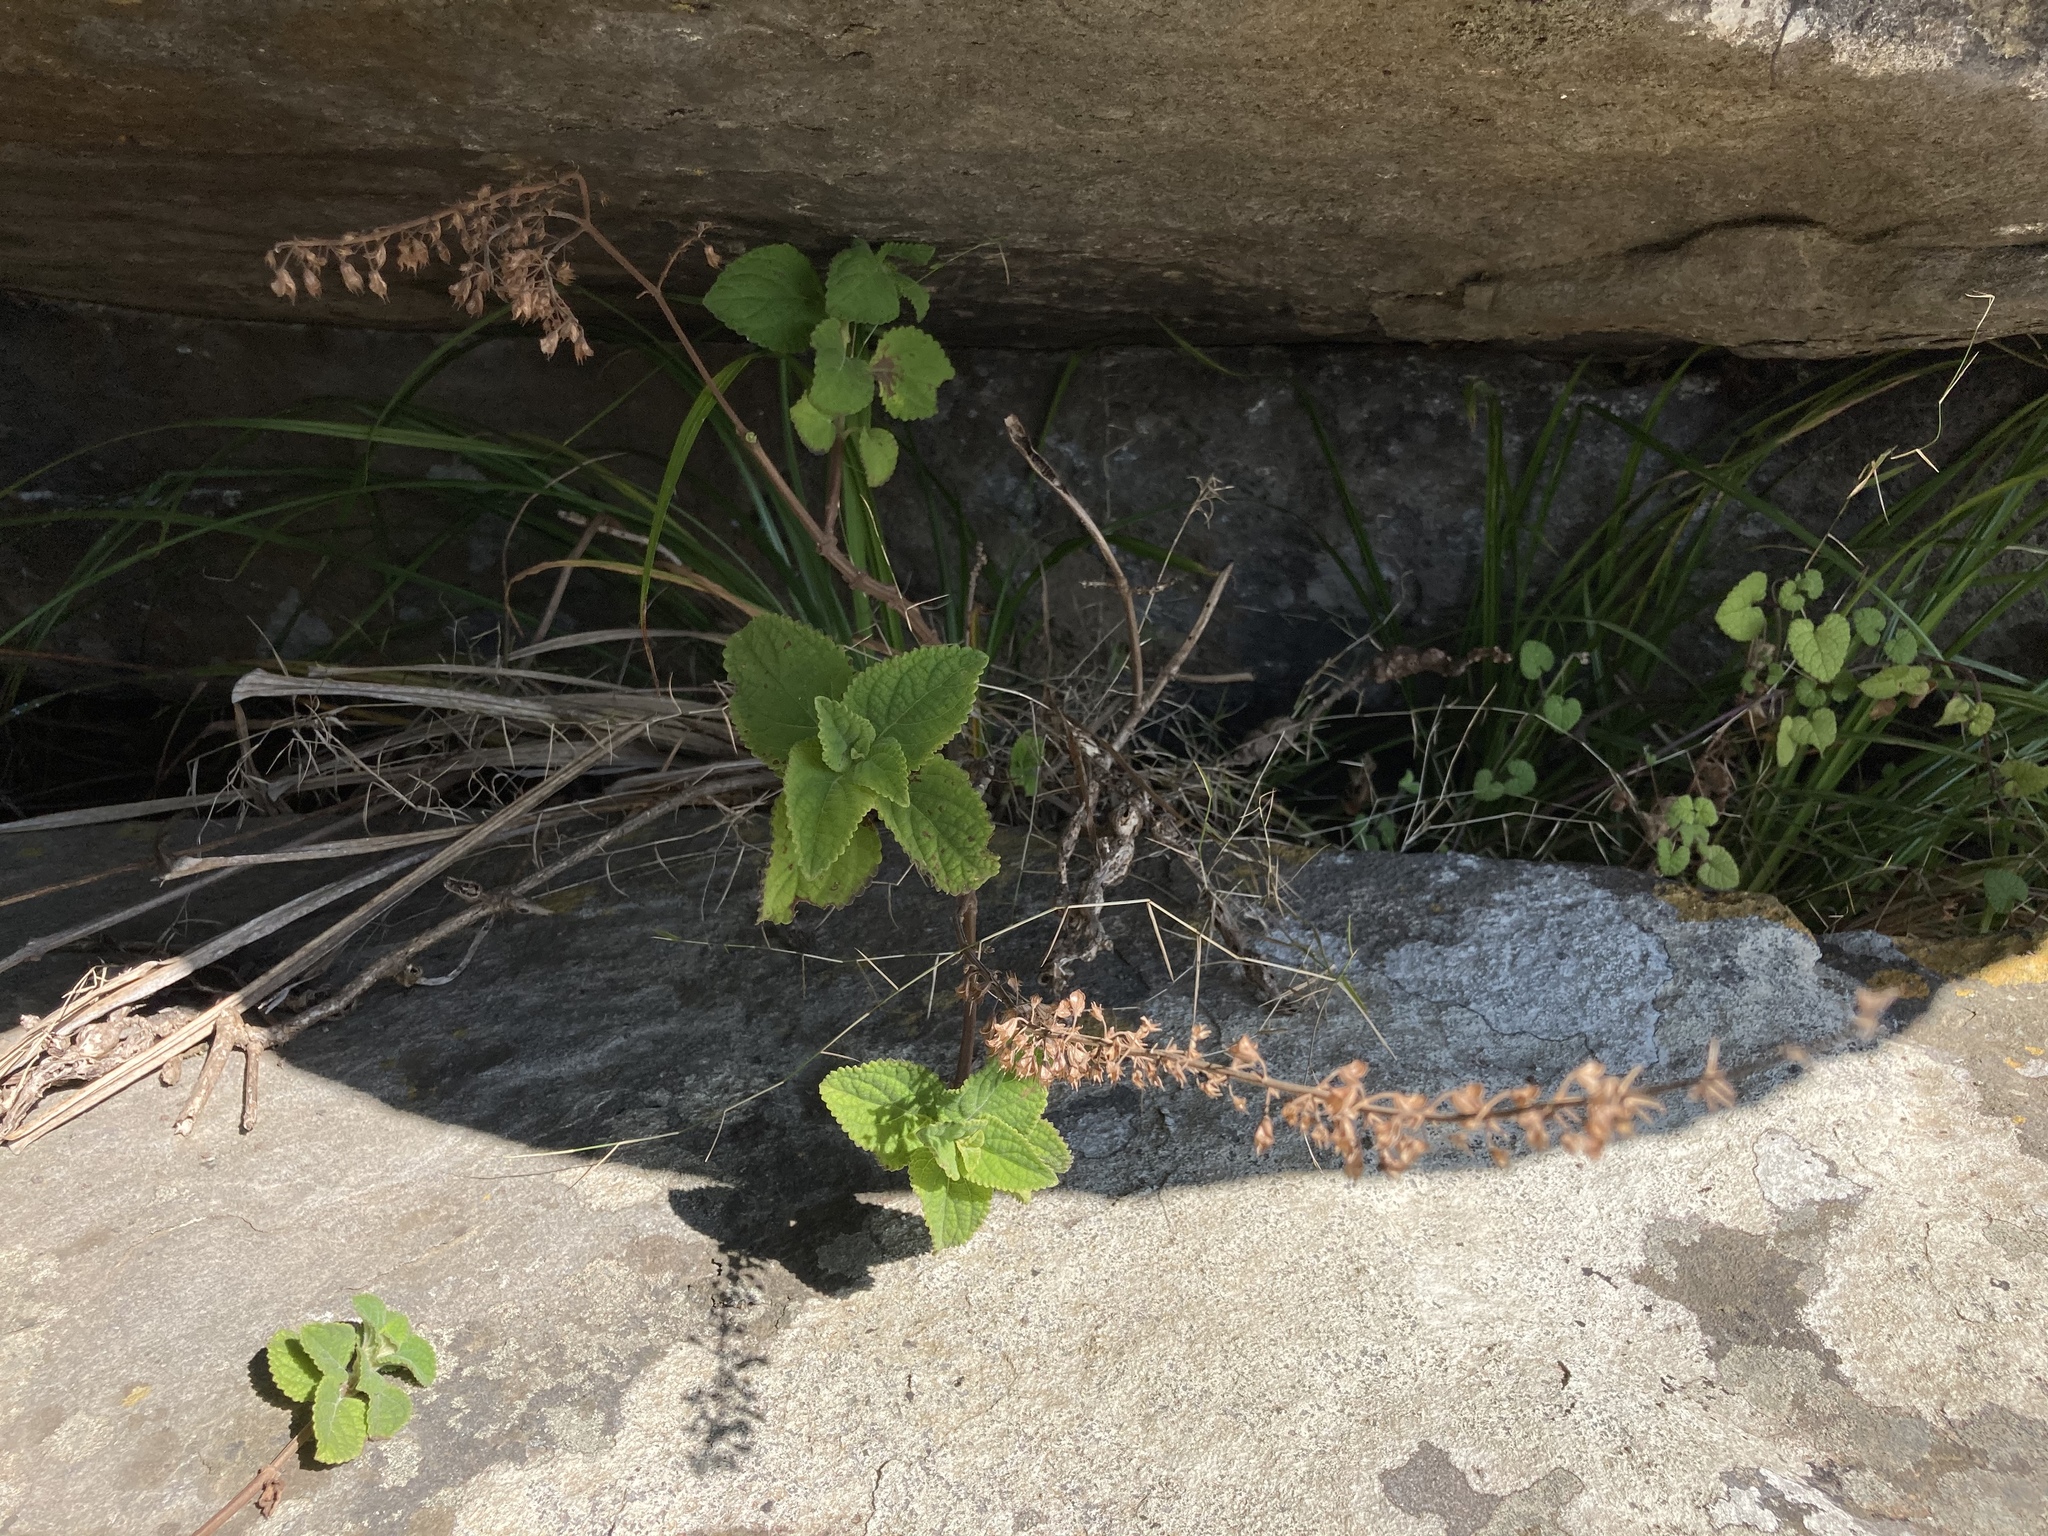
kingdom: Plantae
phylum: Tracheophyta
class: Magnoliopsida
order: Lamiales
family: Lamiaceae
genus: Plectranthus
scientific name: Plectranthus rubropunctatus
